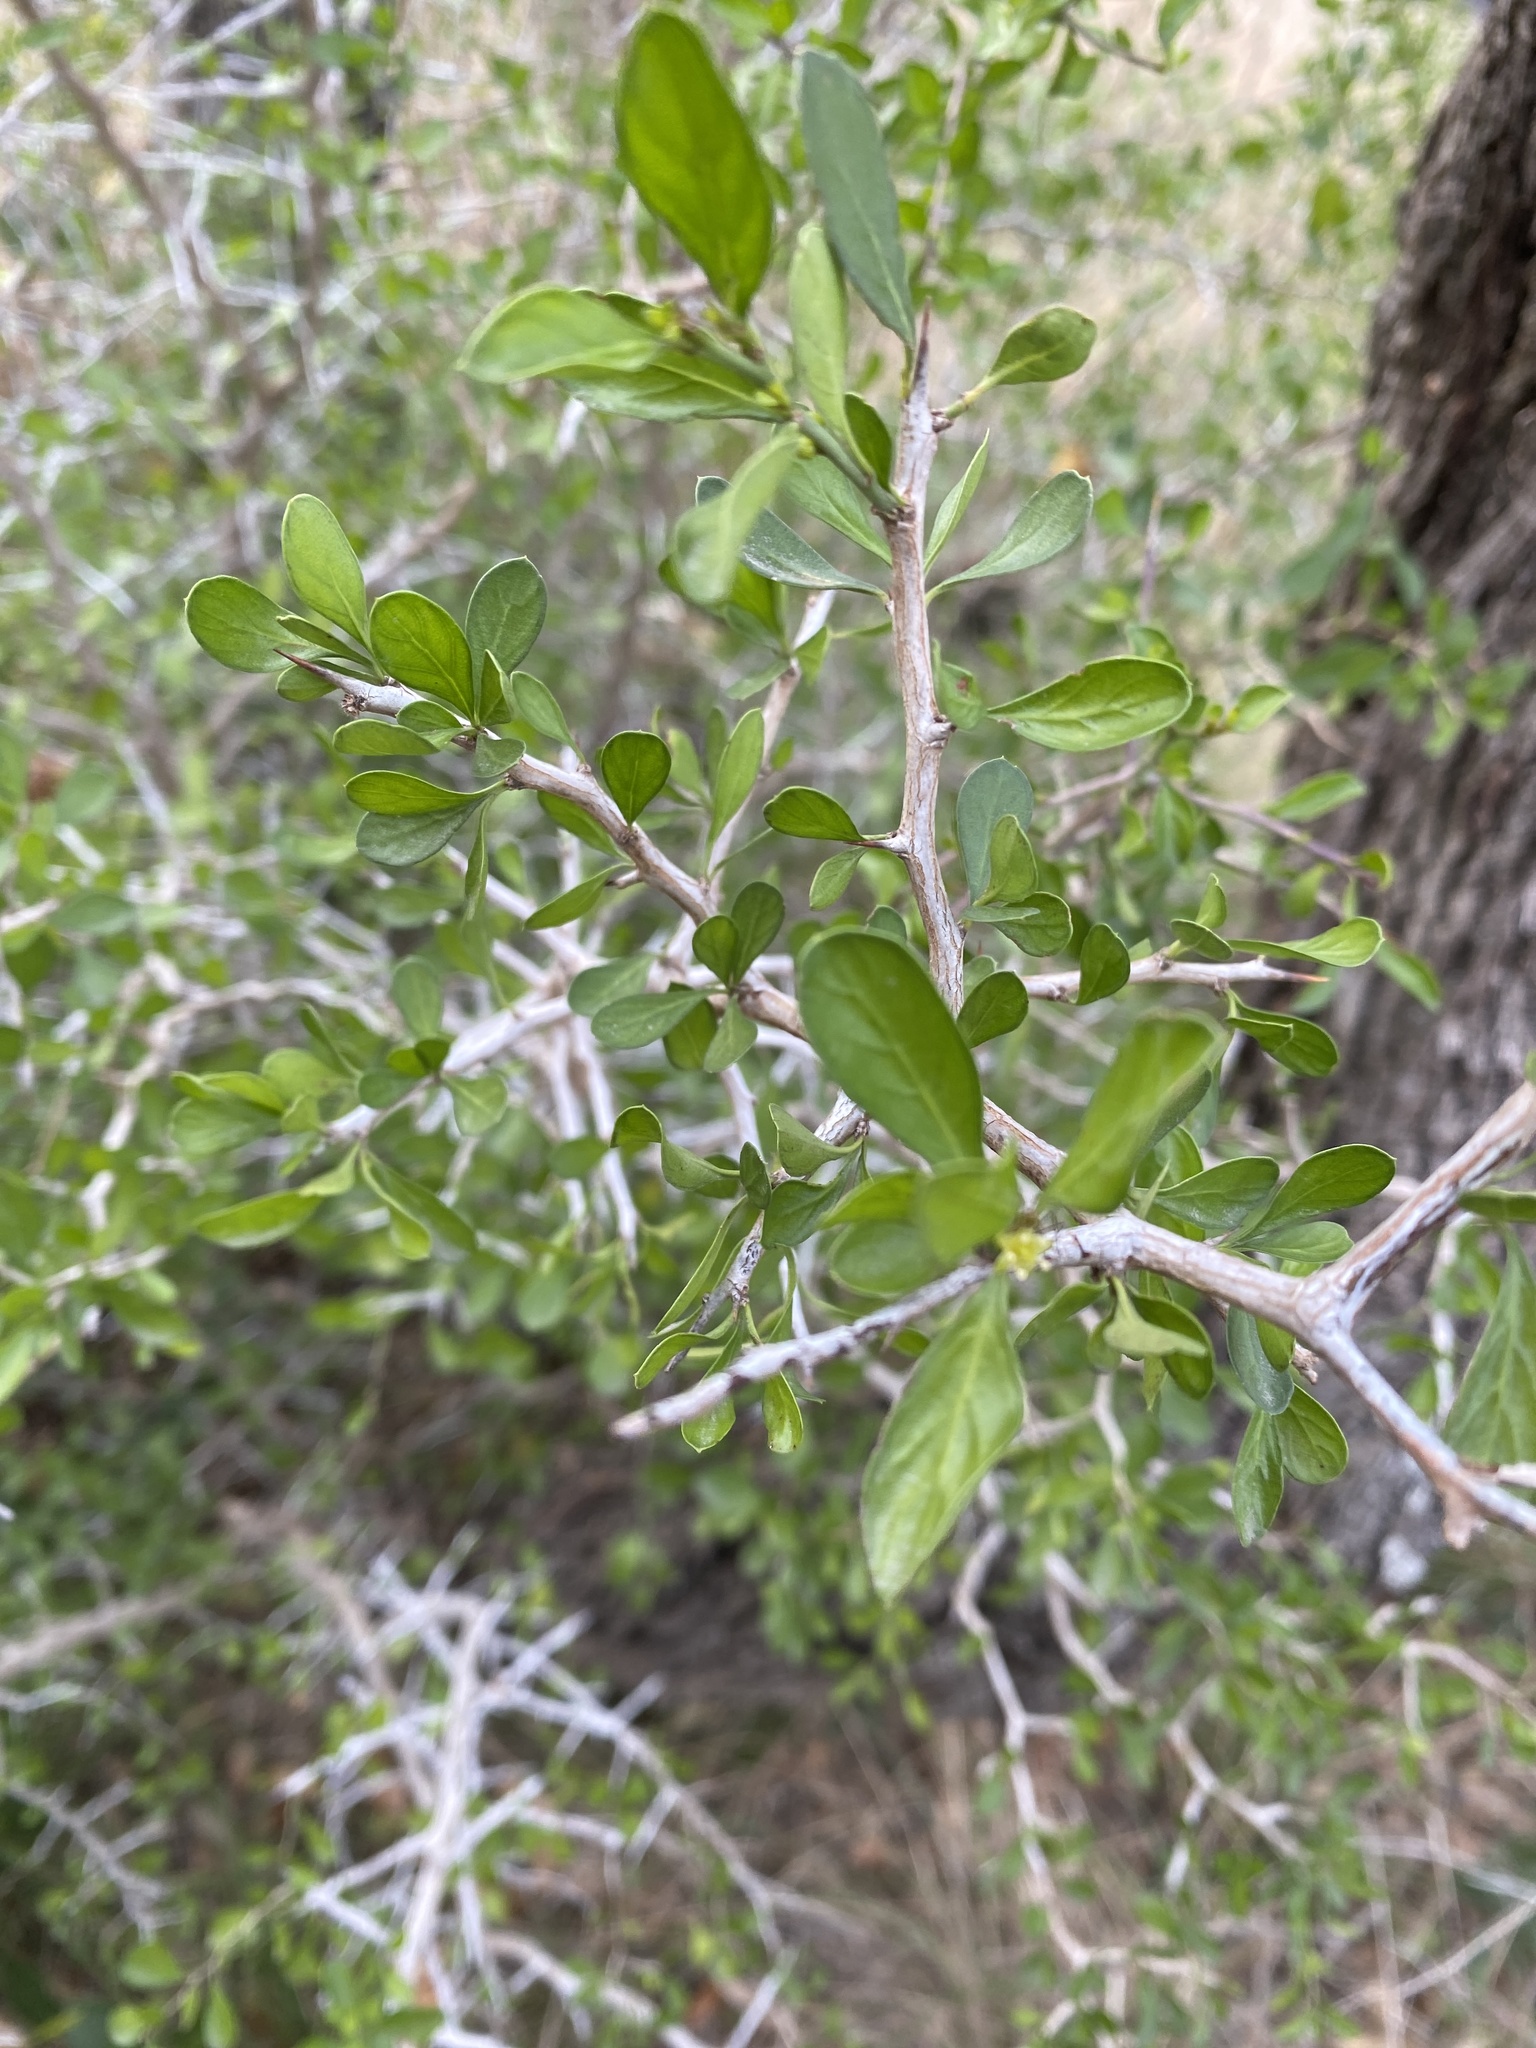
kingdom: Plantae
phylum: Tracheophyta
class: Magnoliopsida
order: Rosales
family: Rhamnaceae
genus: Condalia
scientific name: Condalia hookeri
